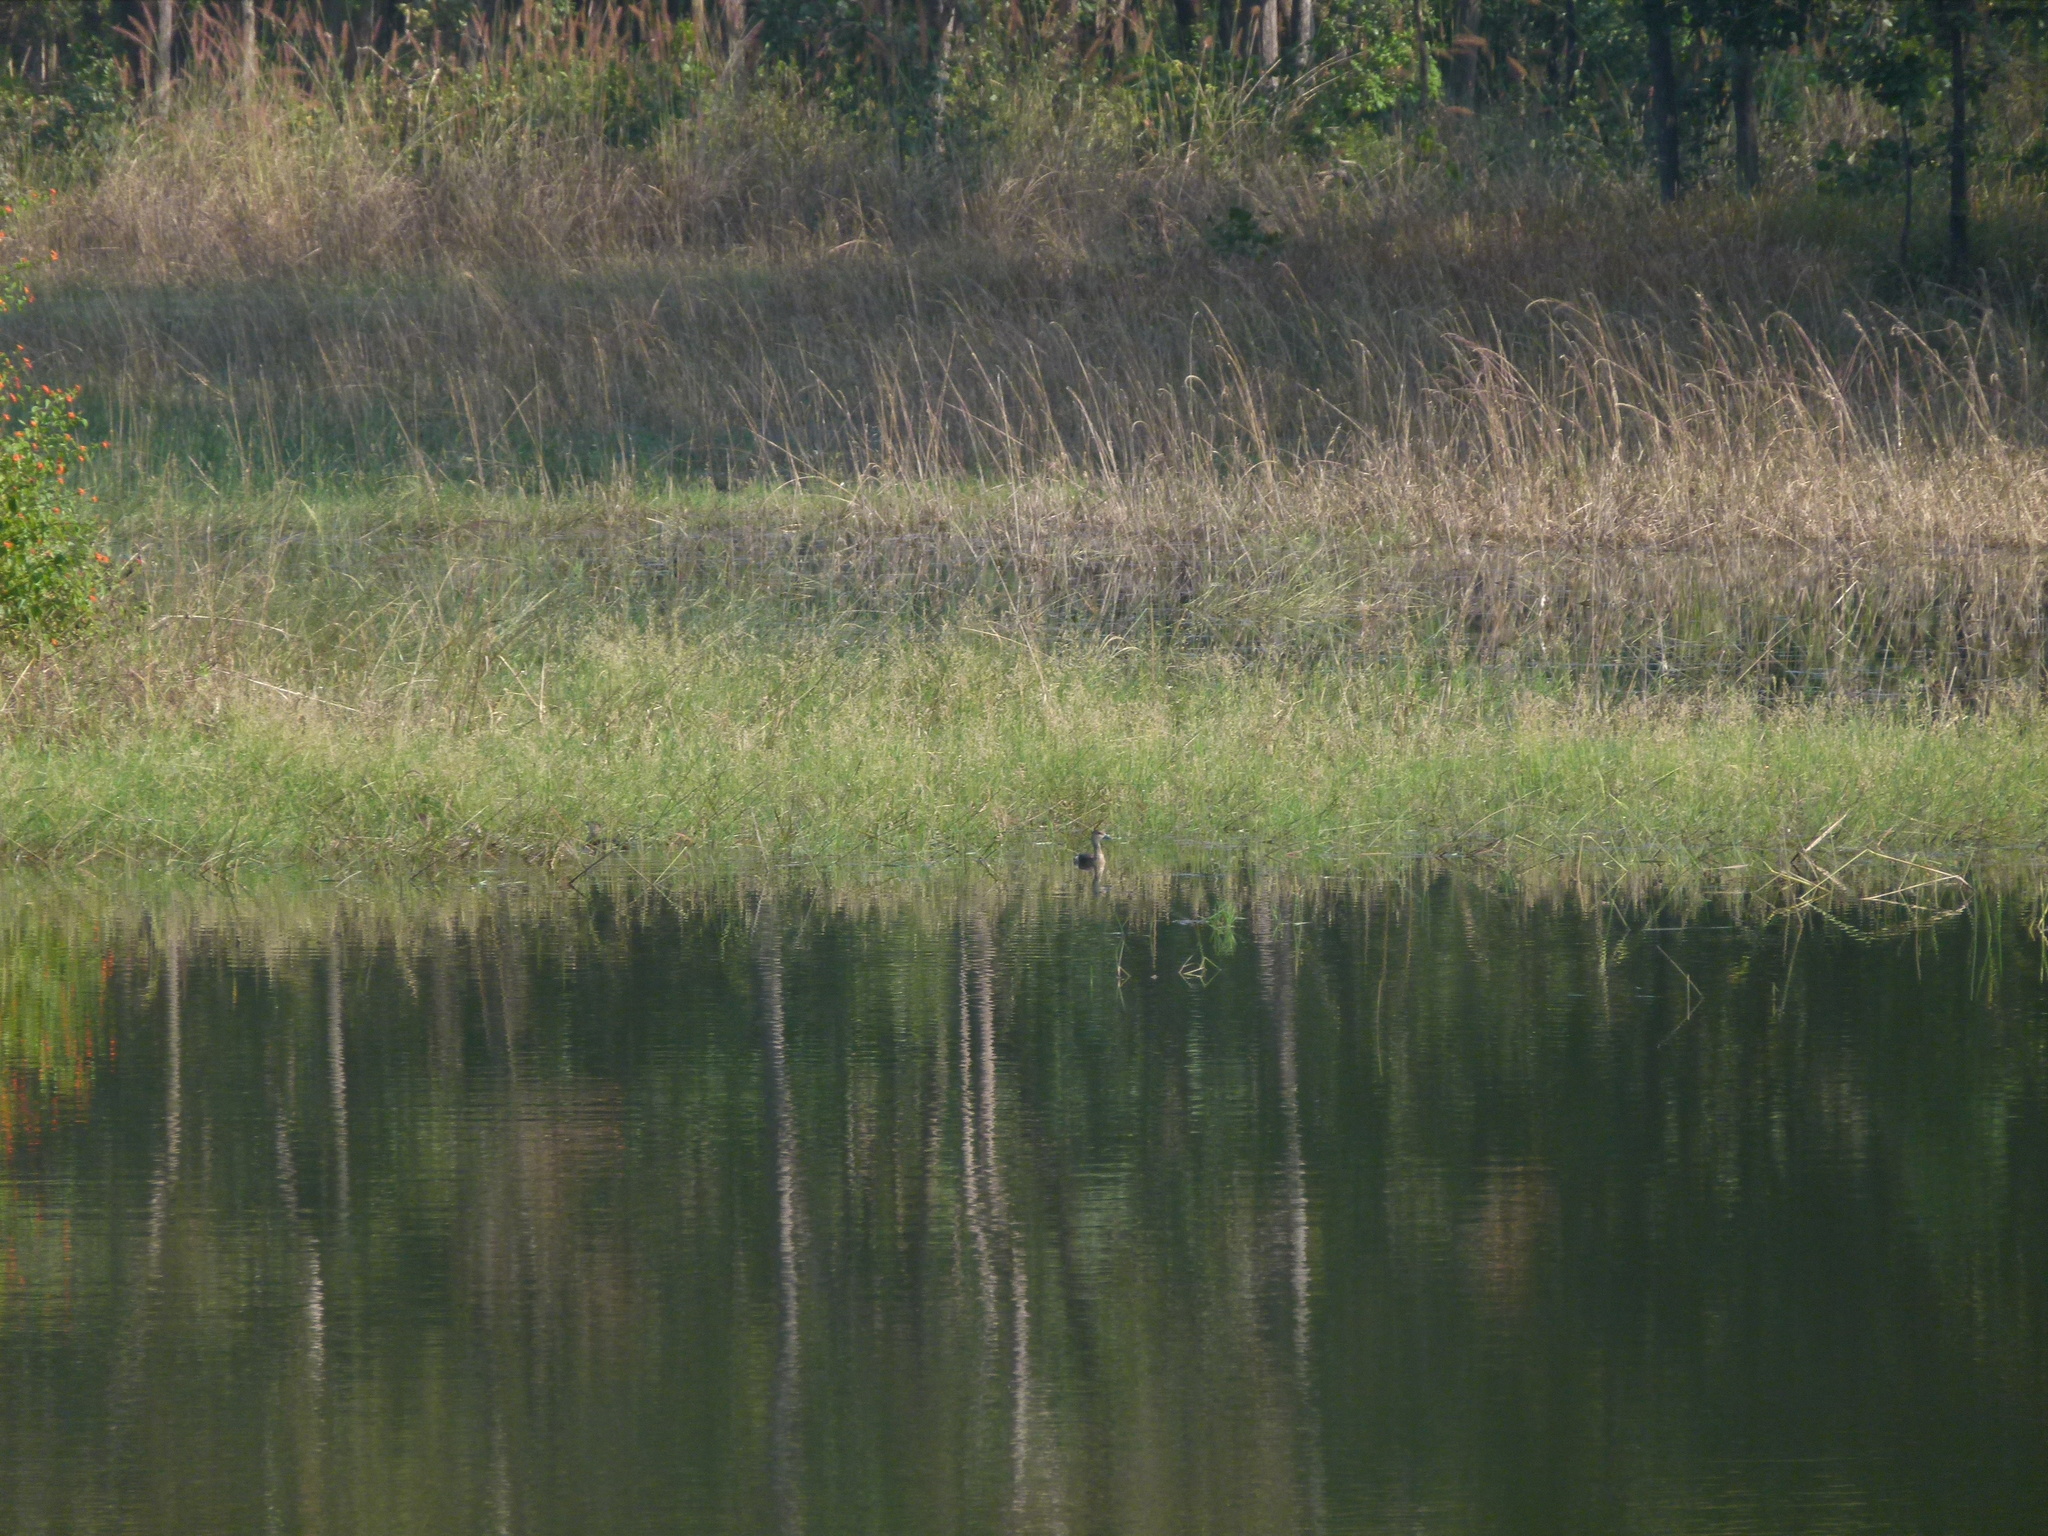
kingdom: Animalia
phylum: Chordata
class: Aves
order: Anseriformes
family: Anatidae
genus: Dendrocygna
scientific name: Dendrocygna javanica
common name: Lesser whistling-duck
